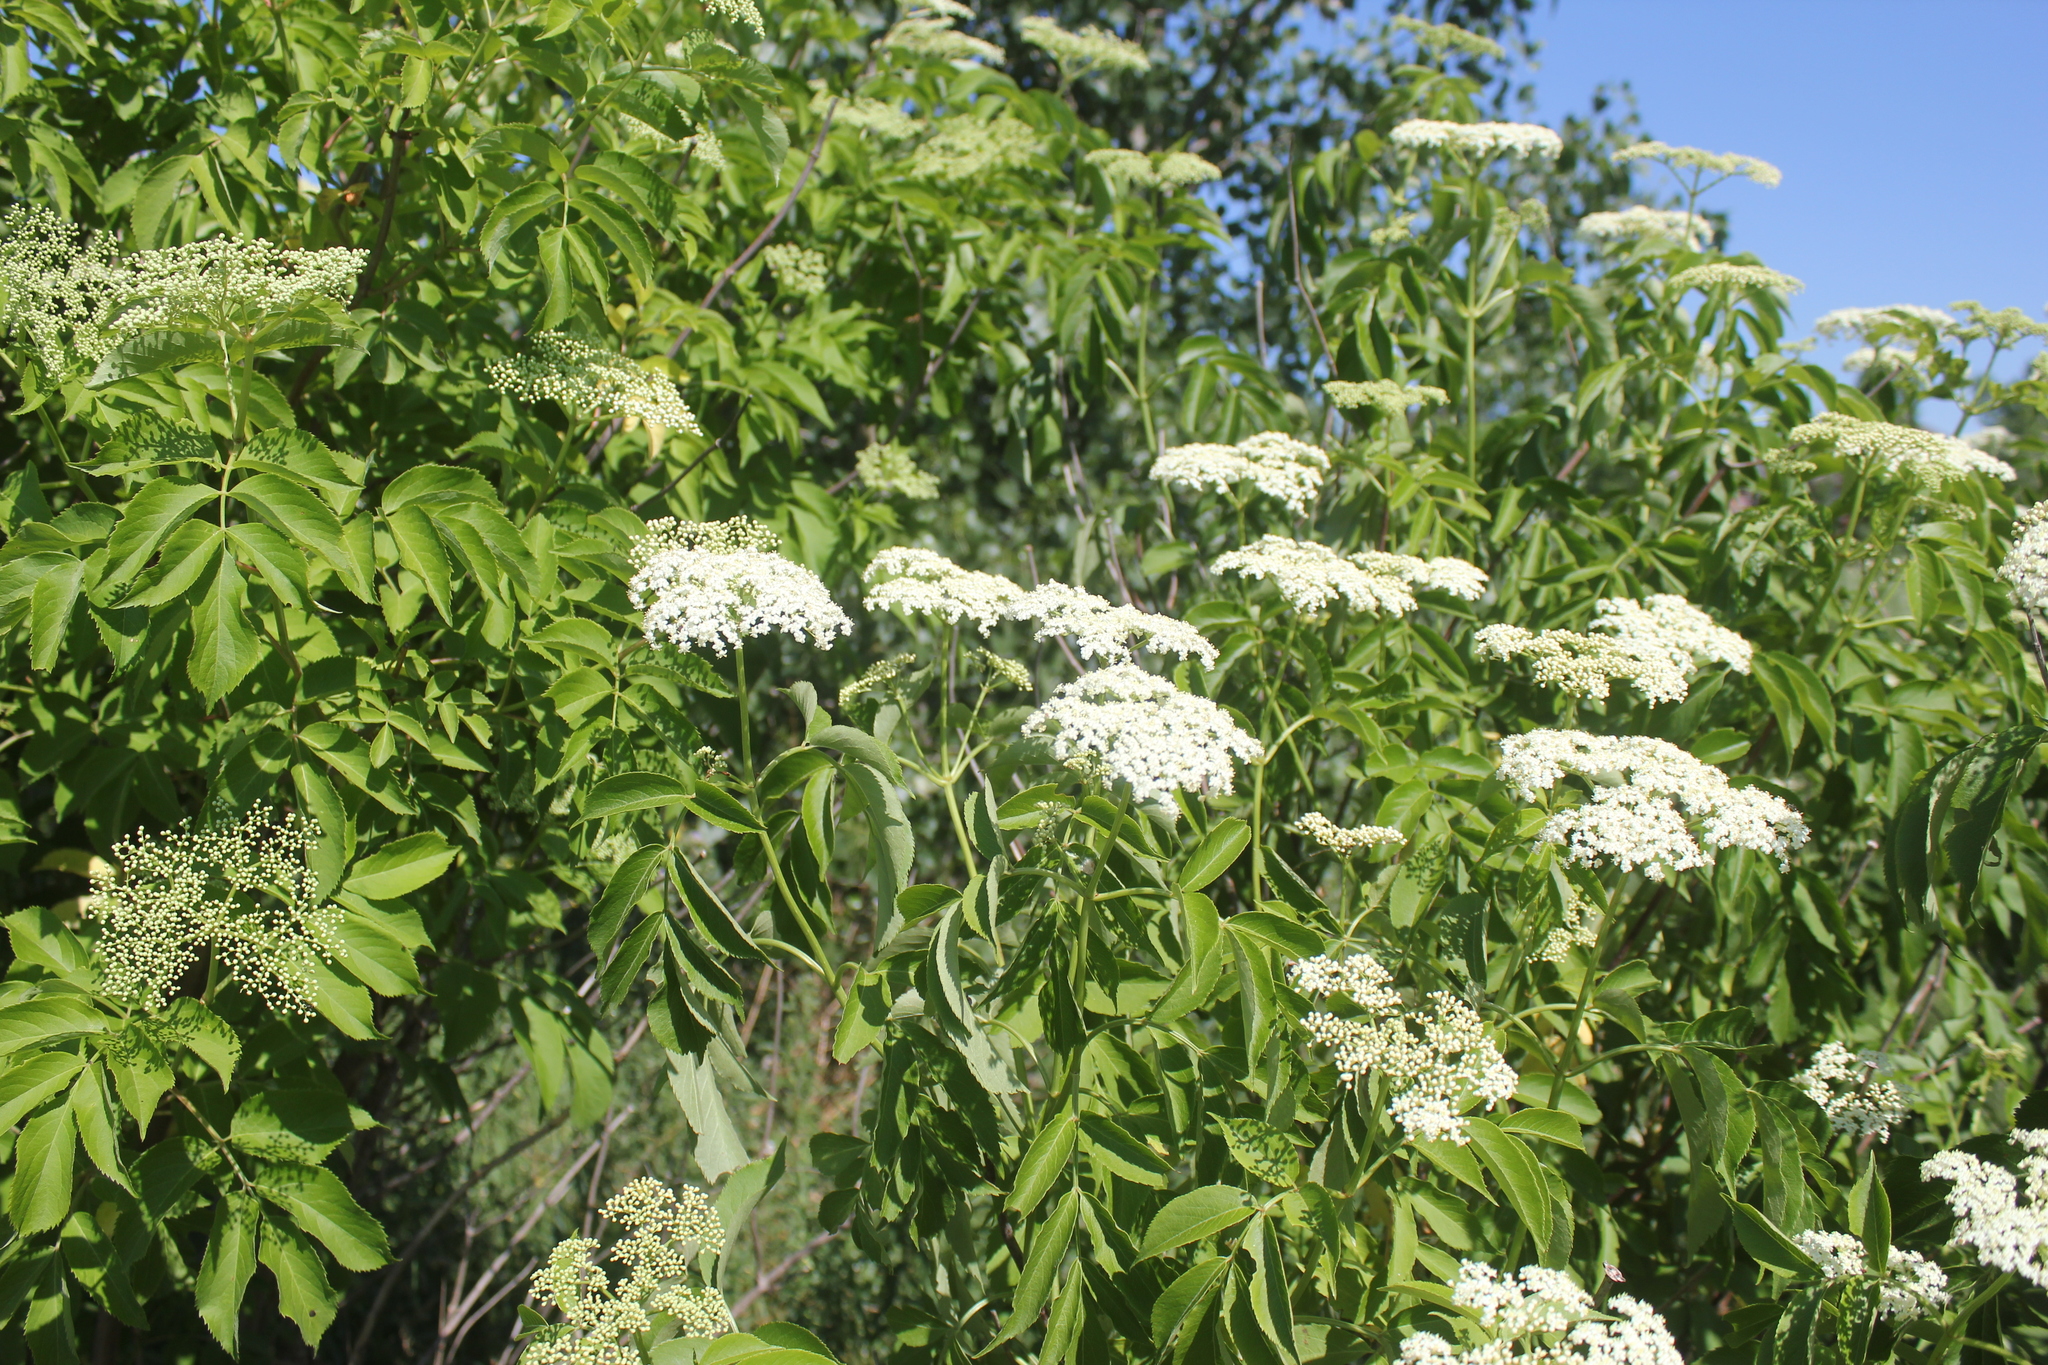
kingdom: Plantae
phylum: Tracheophyta
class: Magnoliopsida
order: Dipsacales
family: Viburnaceae
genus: Sambucus
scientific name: Sambucus canadensis
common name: American elder
